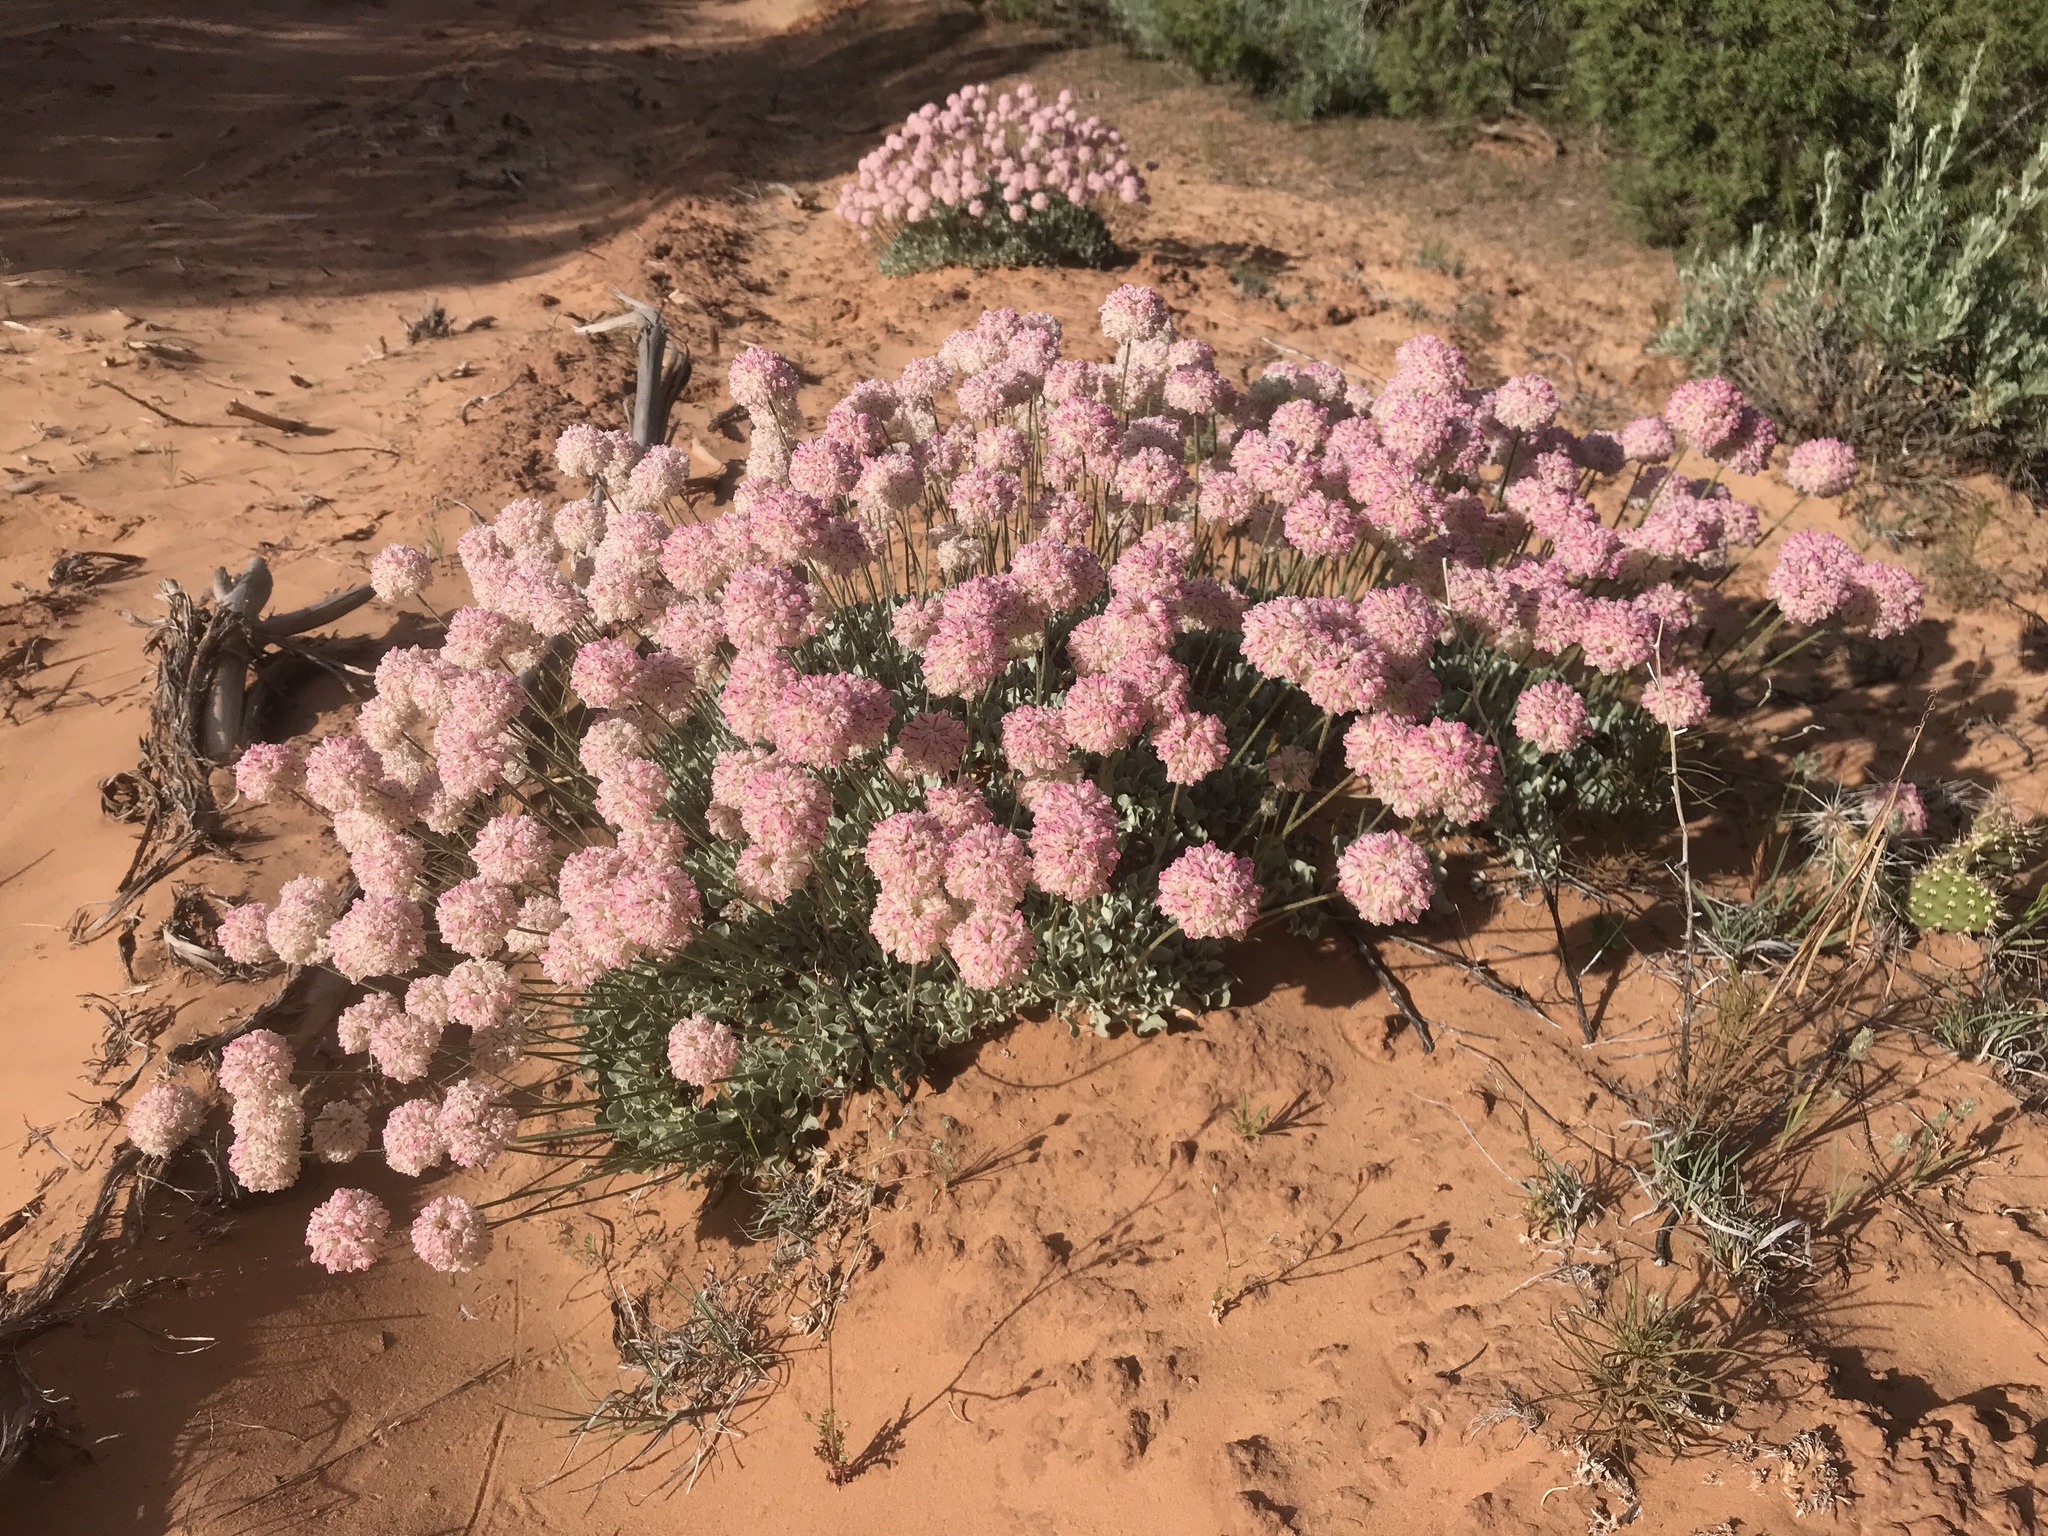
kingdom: Plantae
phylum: Tracheophyta
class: Magnoliopsida
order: Caryophyllales
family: Polygonaceae
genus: Eriogonum
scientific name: Eriogonum ovalifolium
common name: Cushion buckwheat
